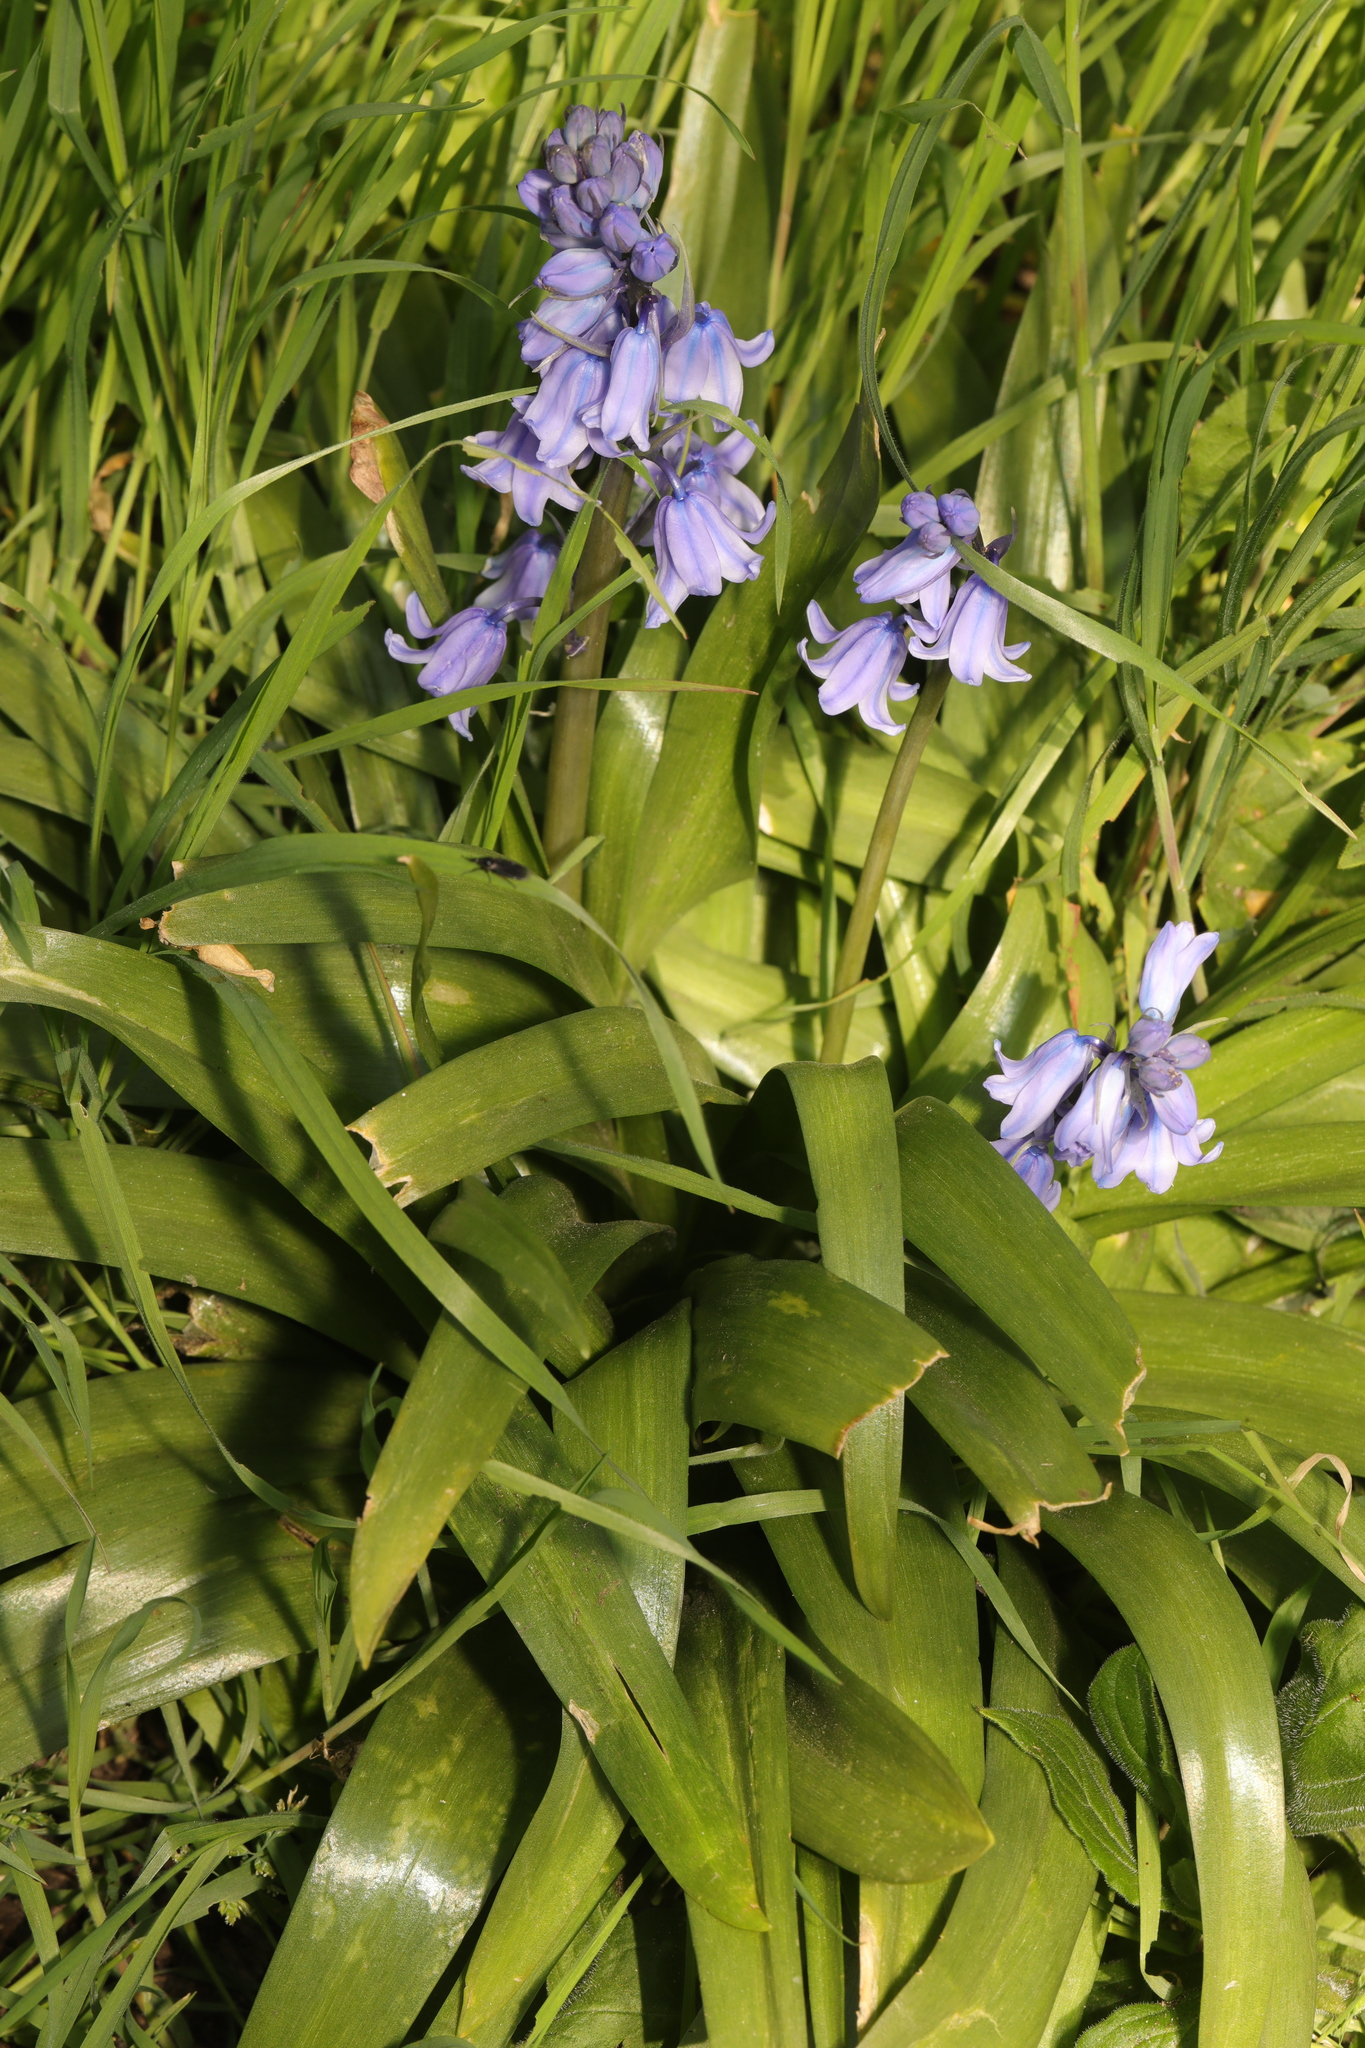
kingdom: Plantae
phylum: Tracheophyta
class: Liliopsida
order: Asparagales
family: Asparagaceae
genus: Hyacinthoides
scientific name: Hyacinthoides hispanica
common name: Spanish bluebell
